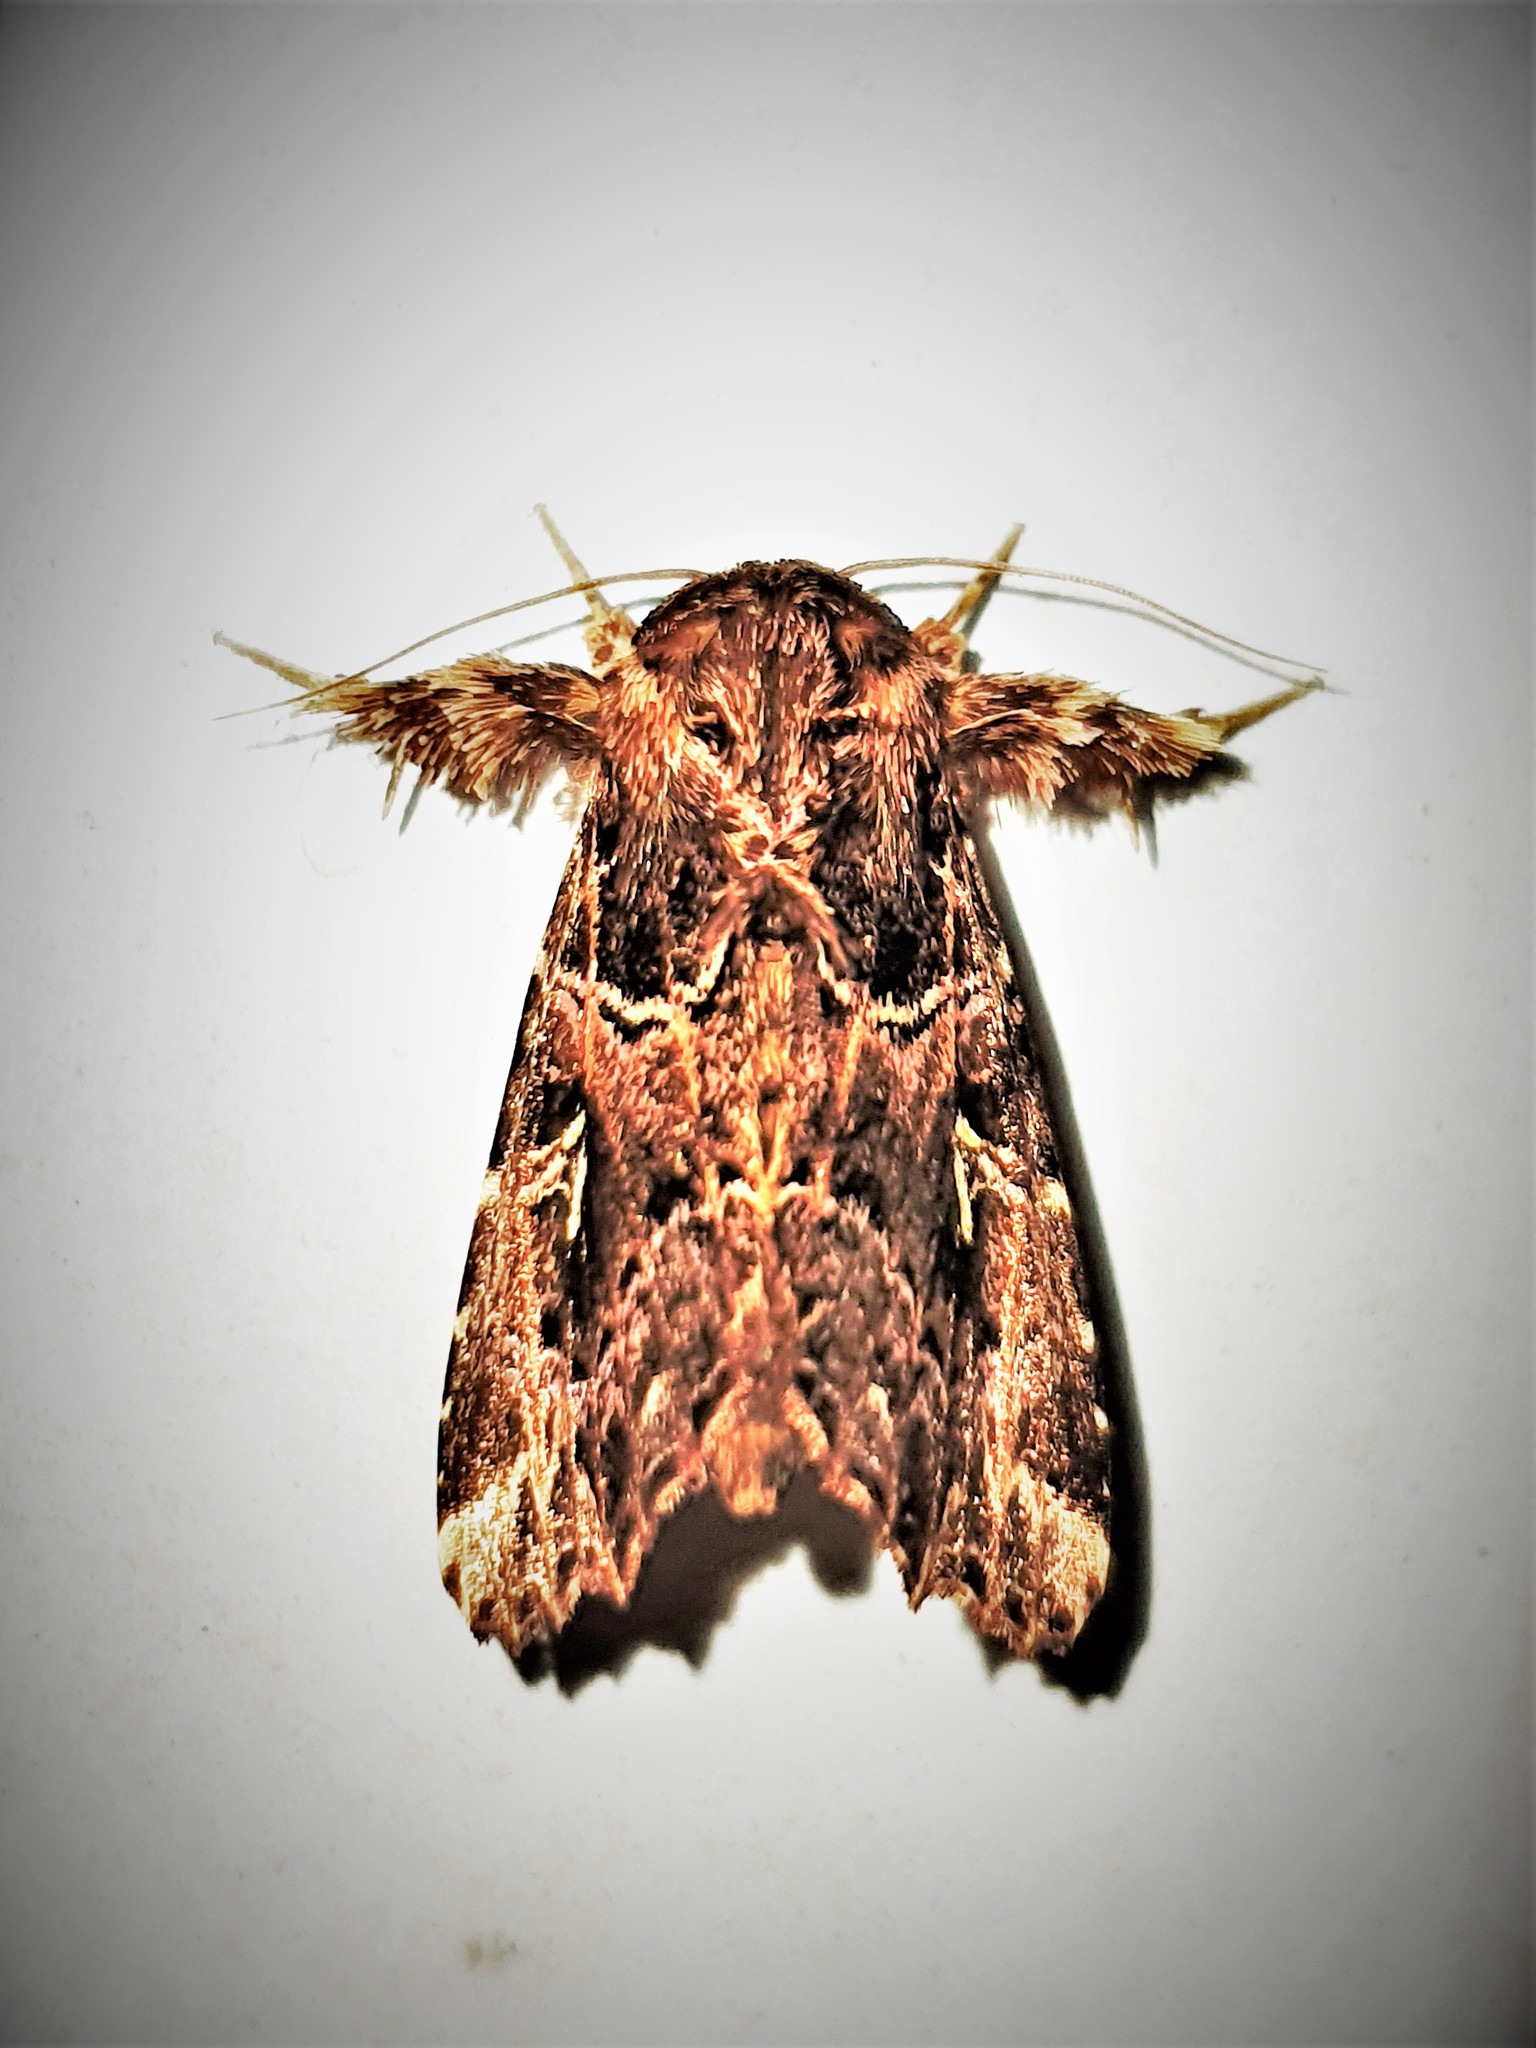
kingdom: Animalia
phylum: Arthropoda
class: Insecta
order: Lepidoptera
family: Noctuidae
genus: Argyrosticta
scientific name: Argyrosticta vauaurea
